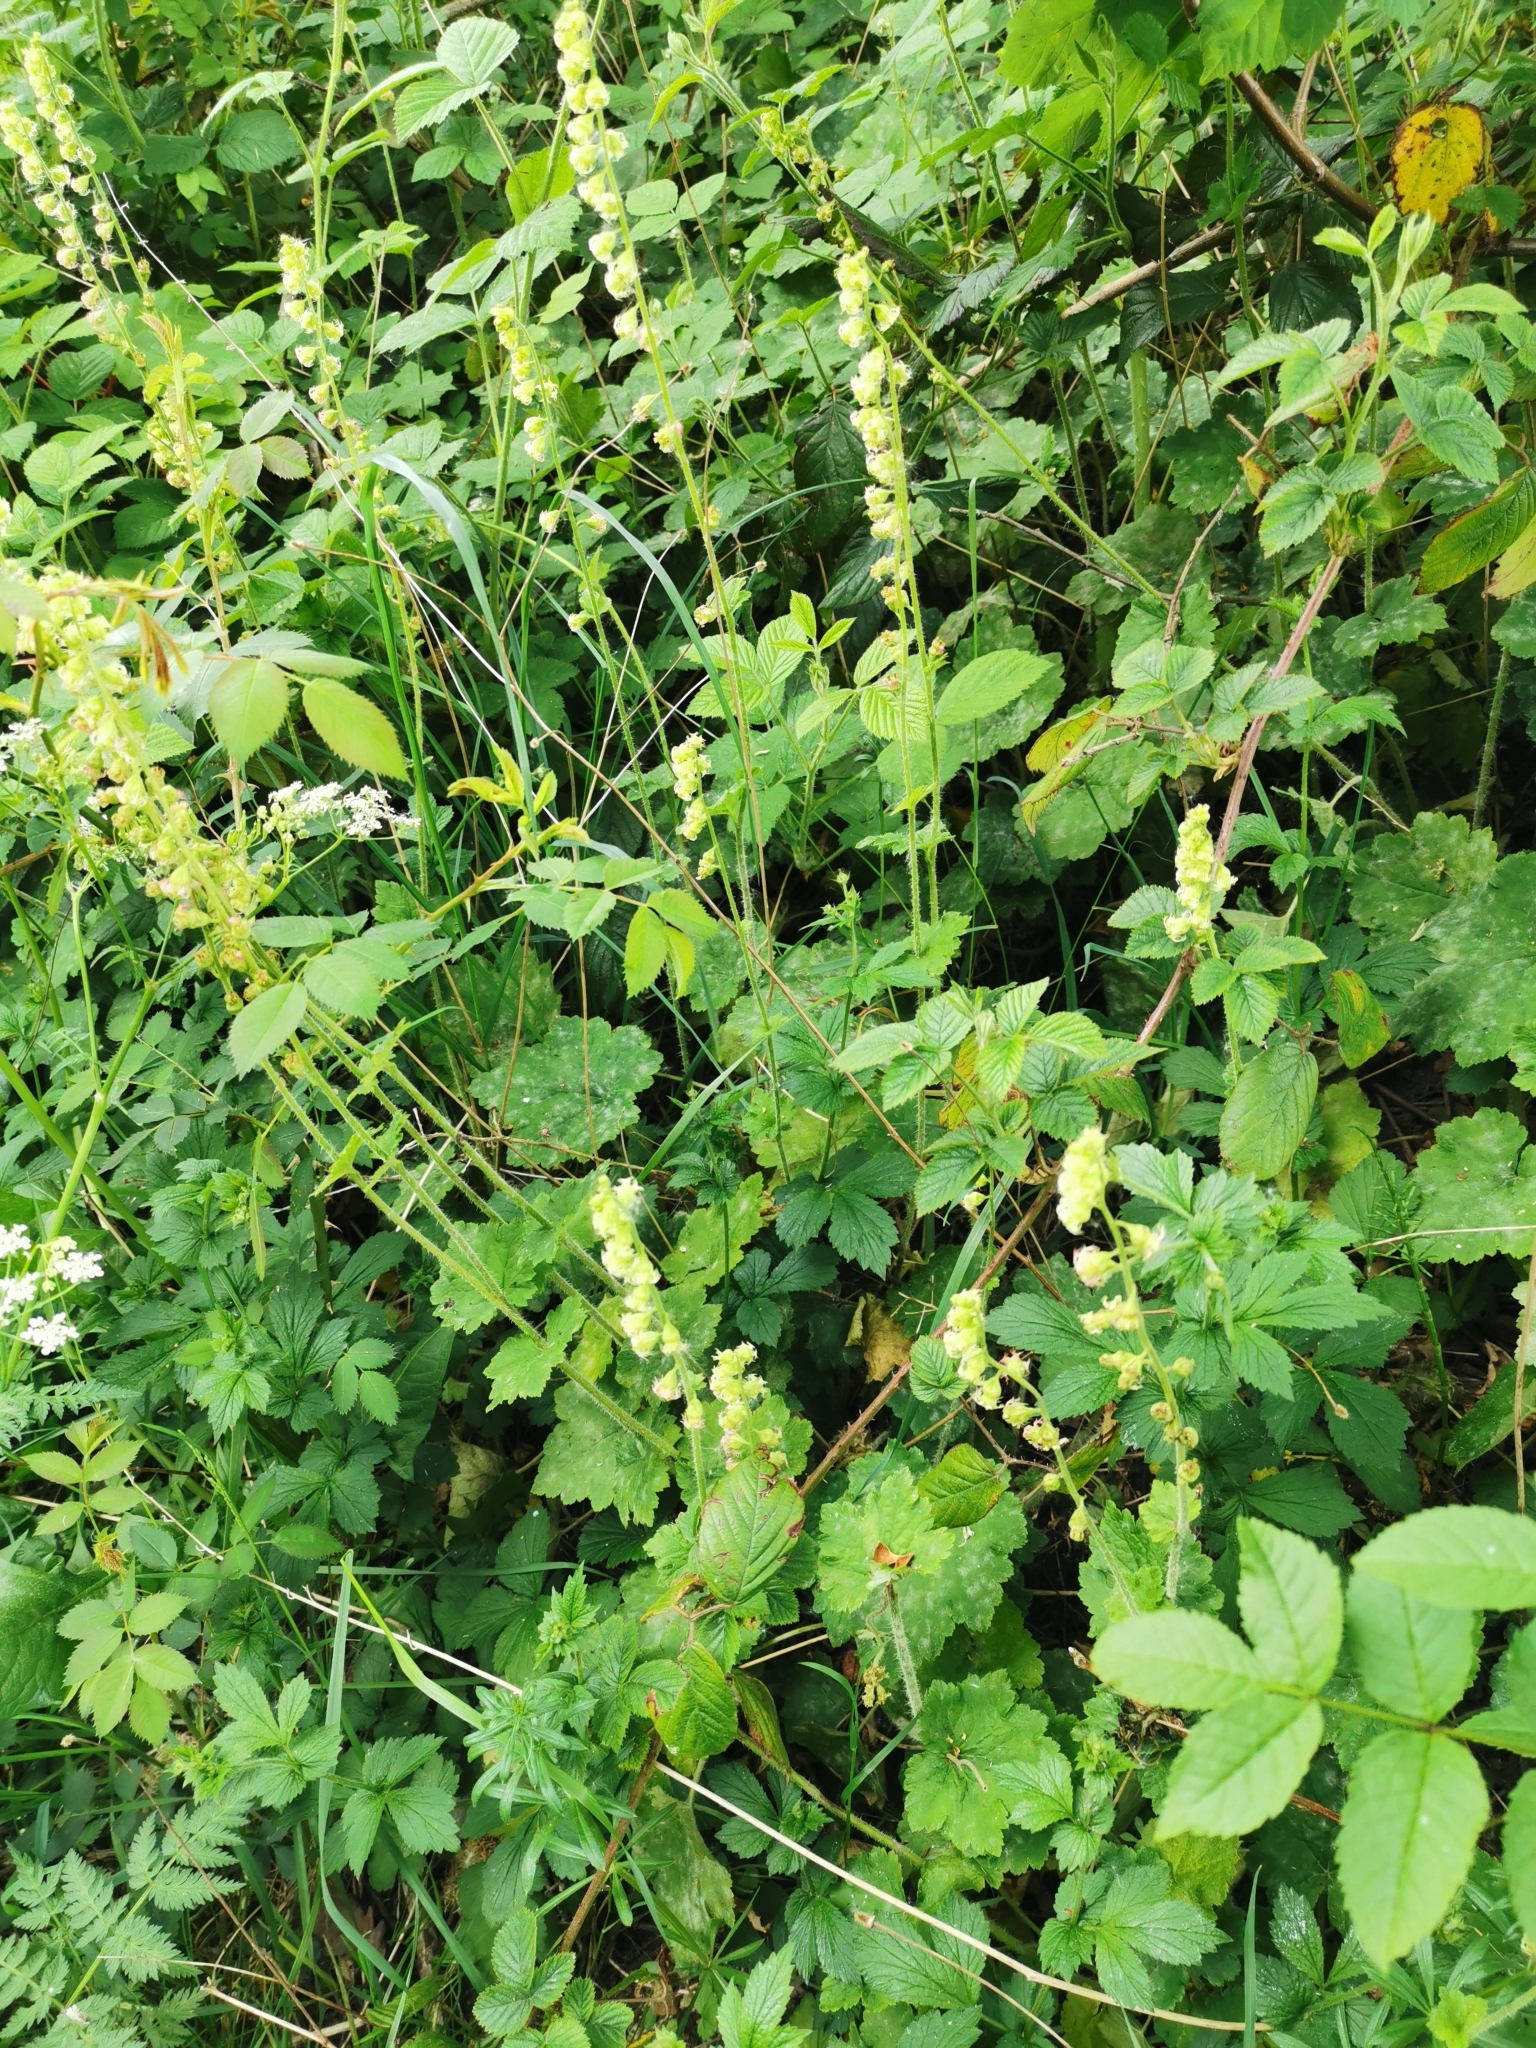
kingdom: Plantae
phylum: Tracheophyta
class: Magnoliopsida
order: Saxifragales
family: Saxifragaceae
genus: Tellima
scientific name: Tellima grandiflora
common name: Fringecups
